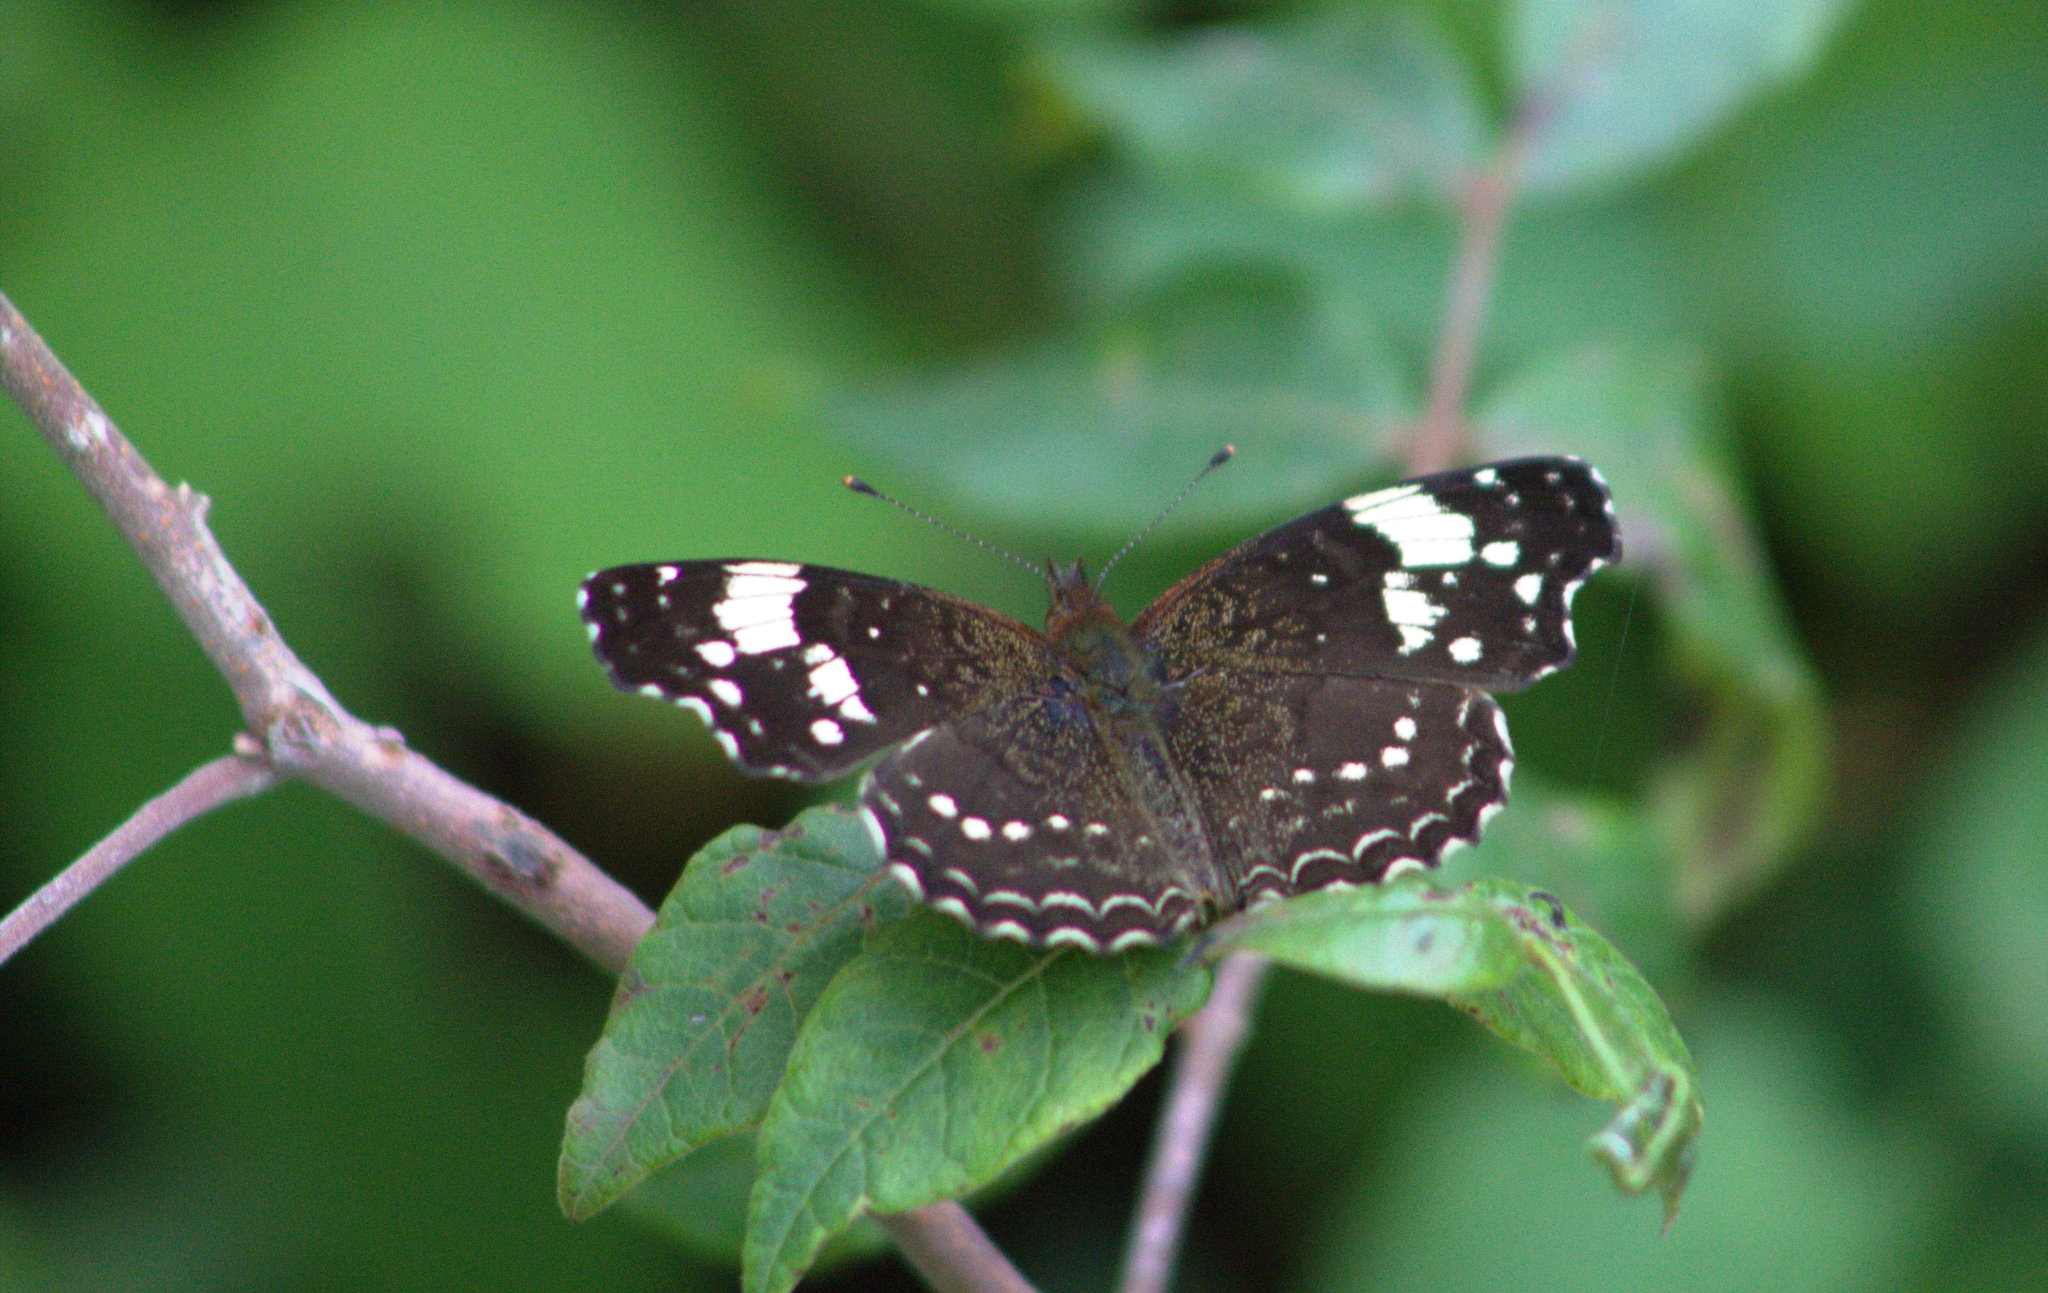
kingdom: Animalia
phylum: Arthropoda
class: Insecta
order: Lepidoptera
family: Nymphalidae
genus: Anthanassa
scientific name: Anthanassa sitalces
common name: Montane crescent
